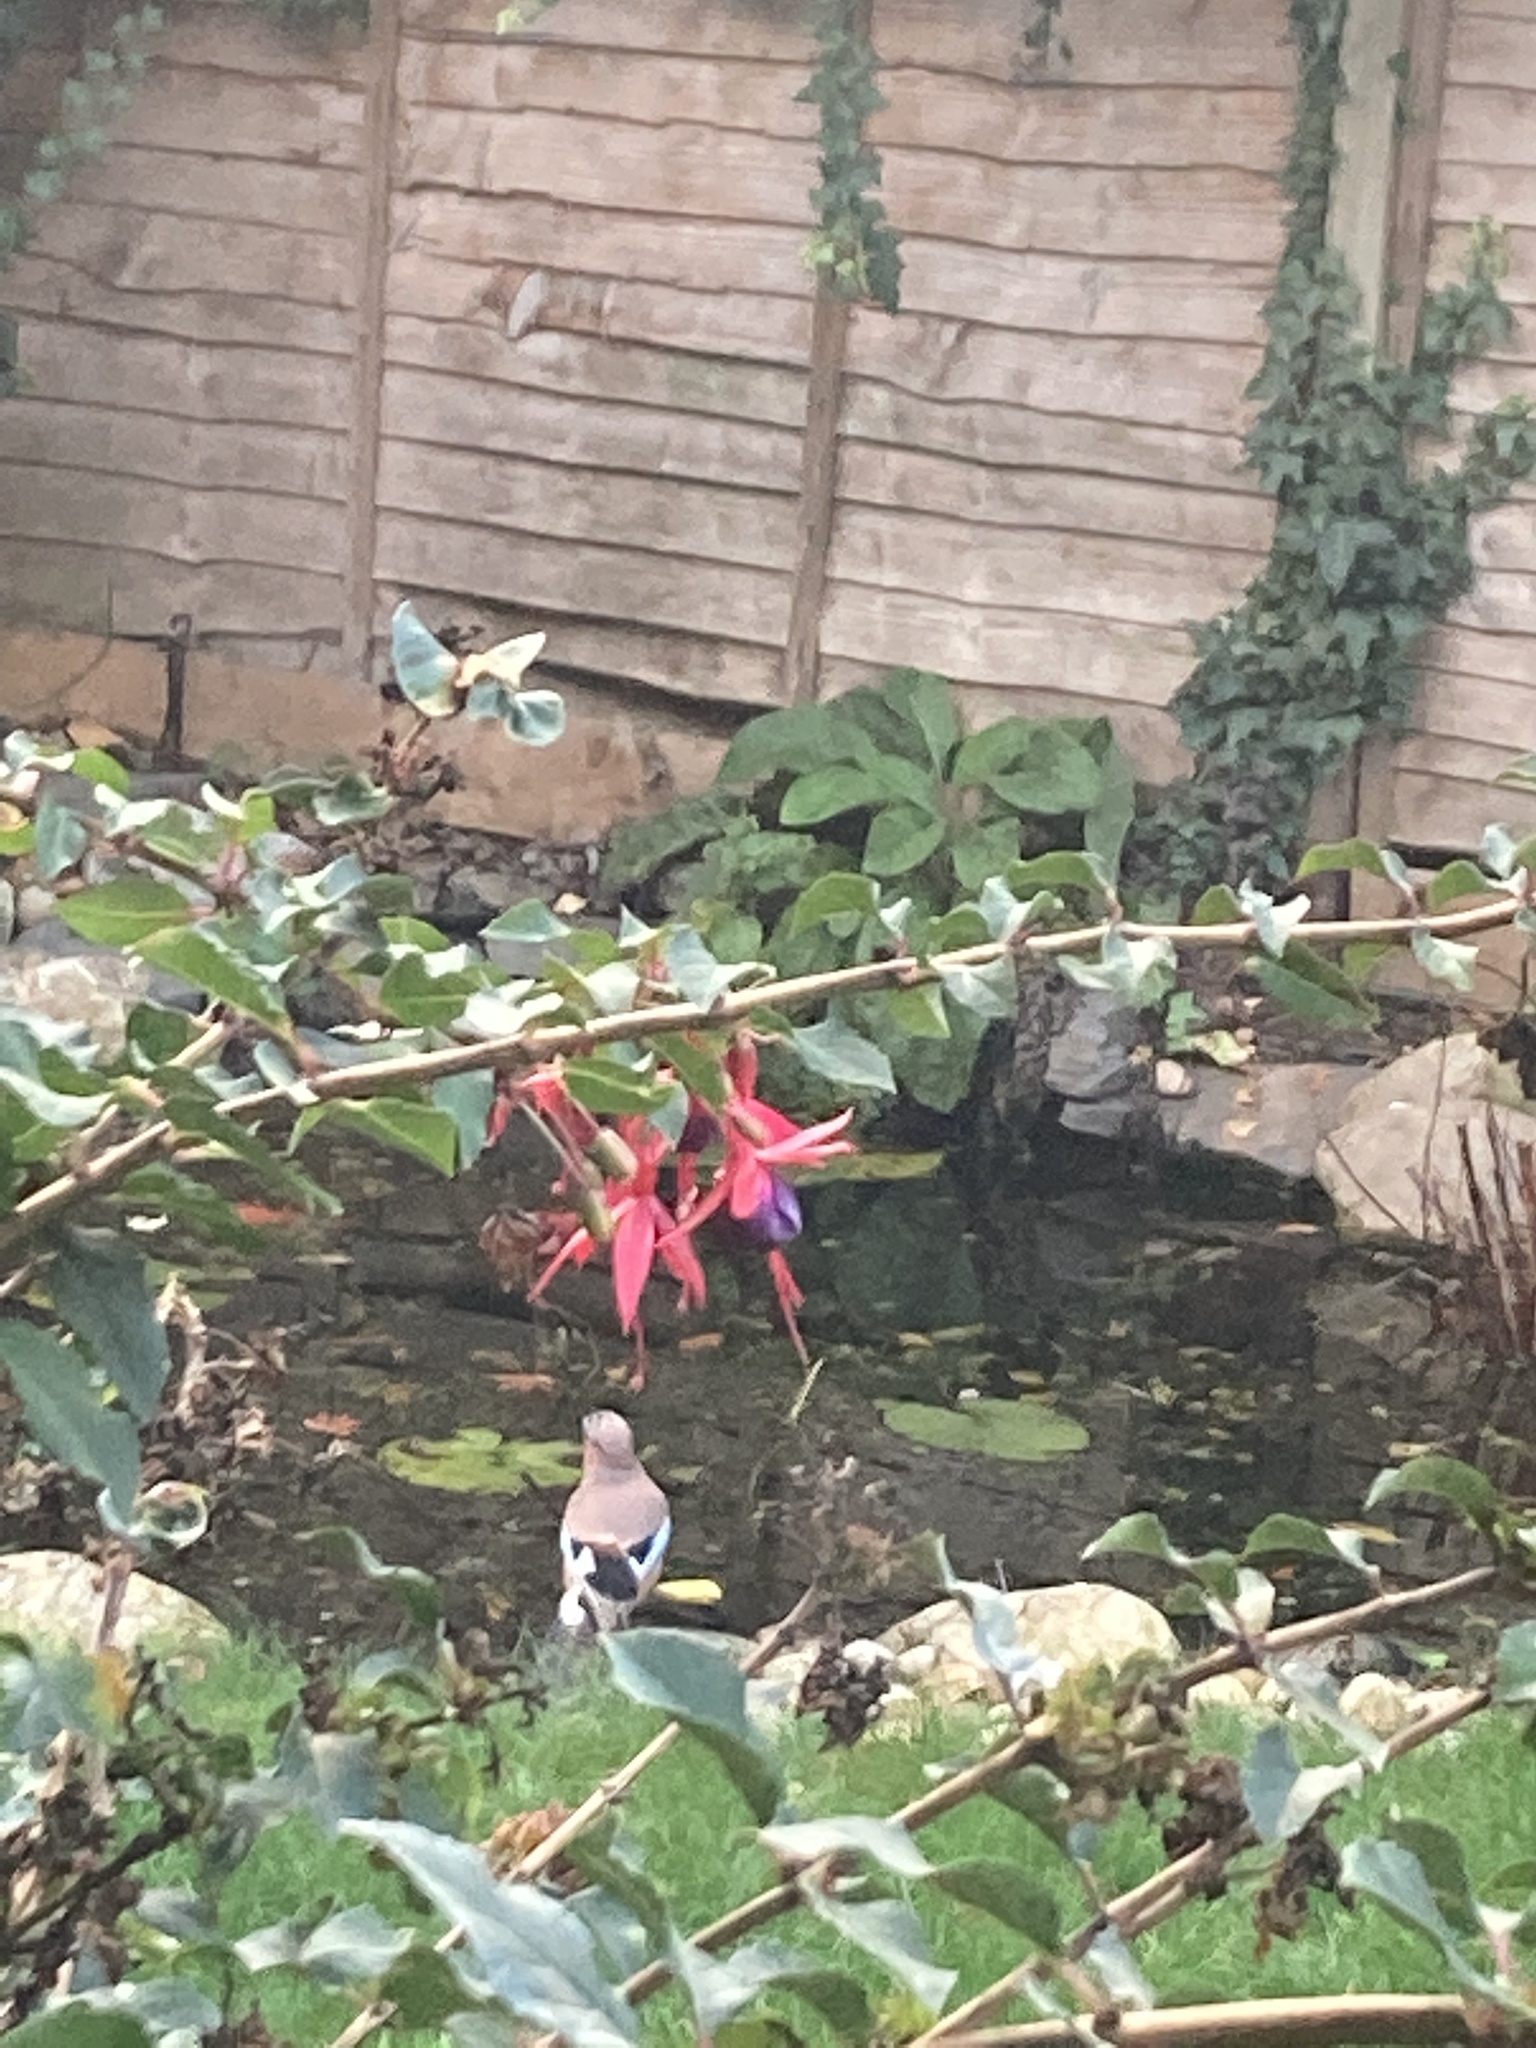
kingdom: Animalia
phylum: Chordata
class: Aves
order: Passeriformes
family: Corvidae
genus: Garrulus
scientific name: Garrulus glandarius
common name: Eurasian jay
